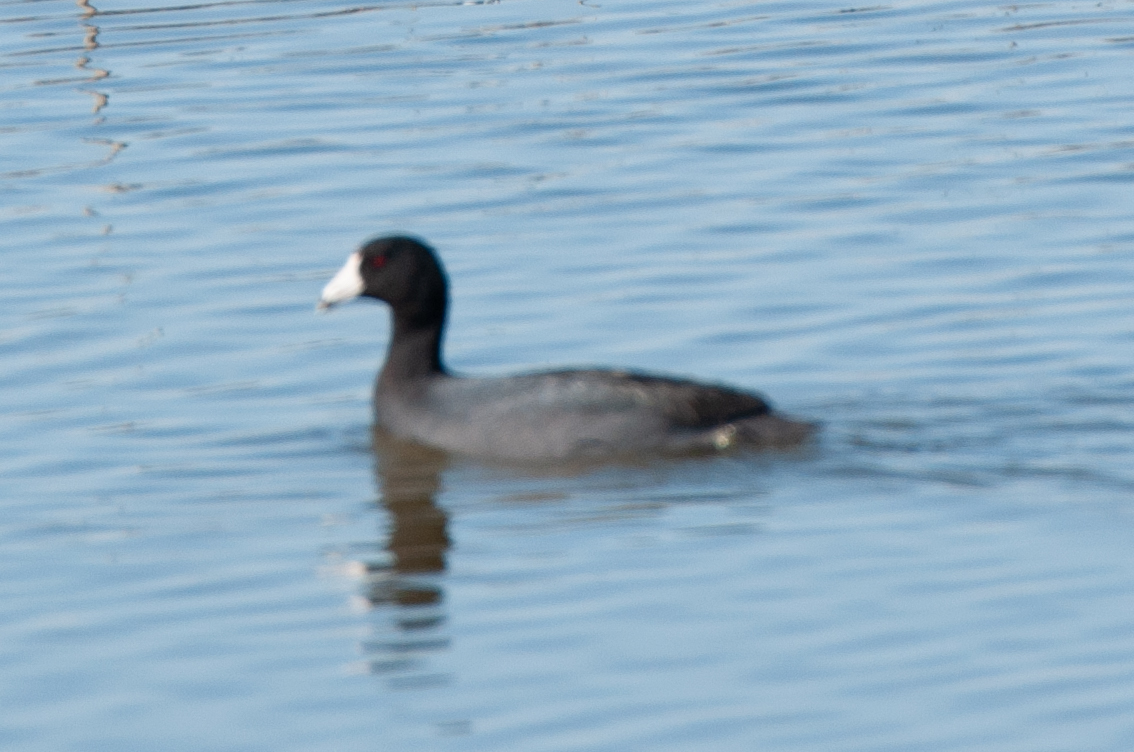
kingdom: Animalia
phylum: Chordata
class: Aves
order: Gruiformes
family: Rallidae
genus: Fulica
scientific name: Fulica americana
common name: American coot
